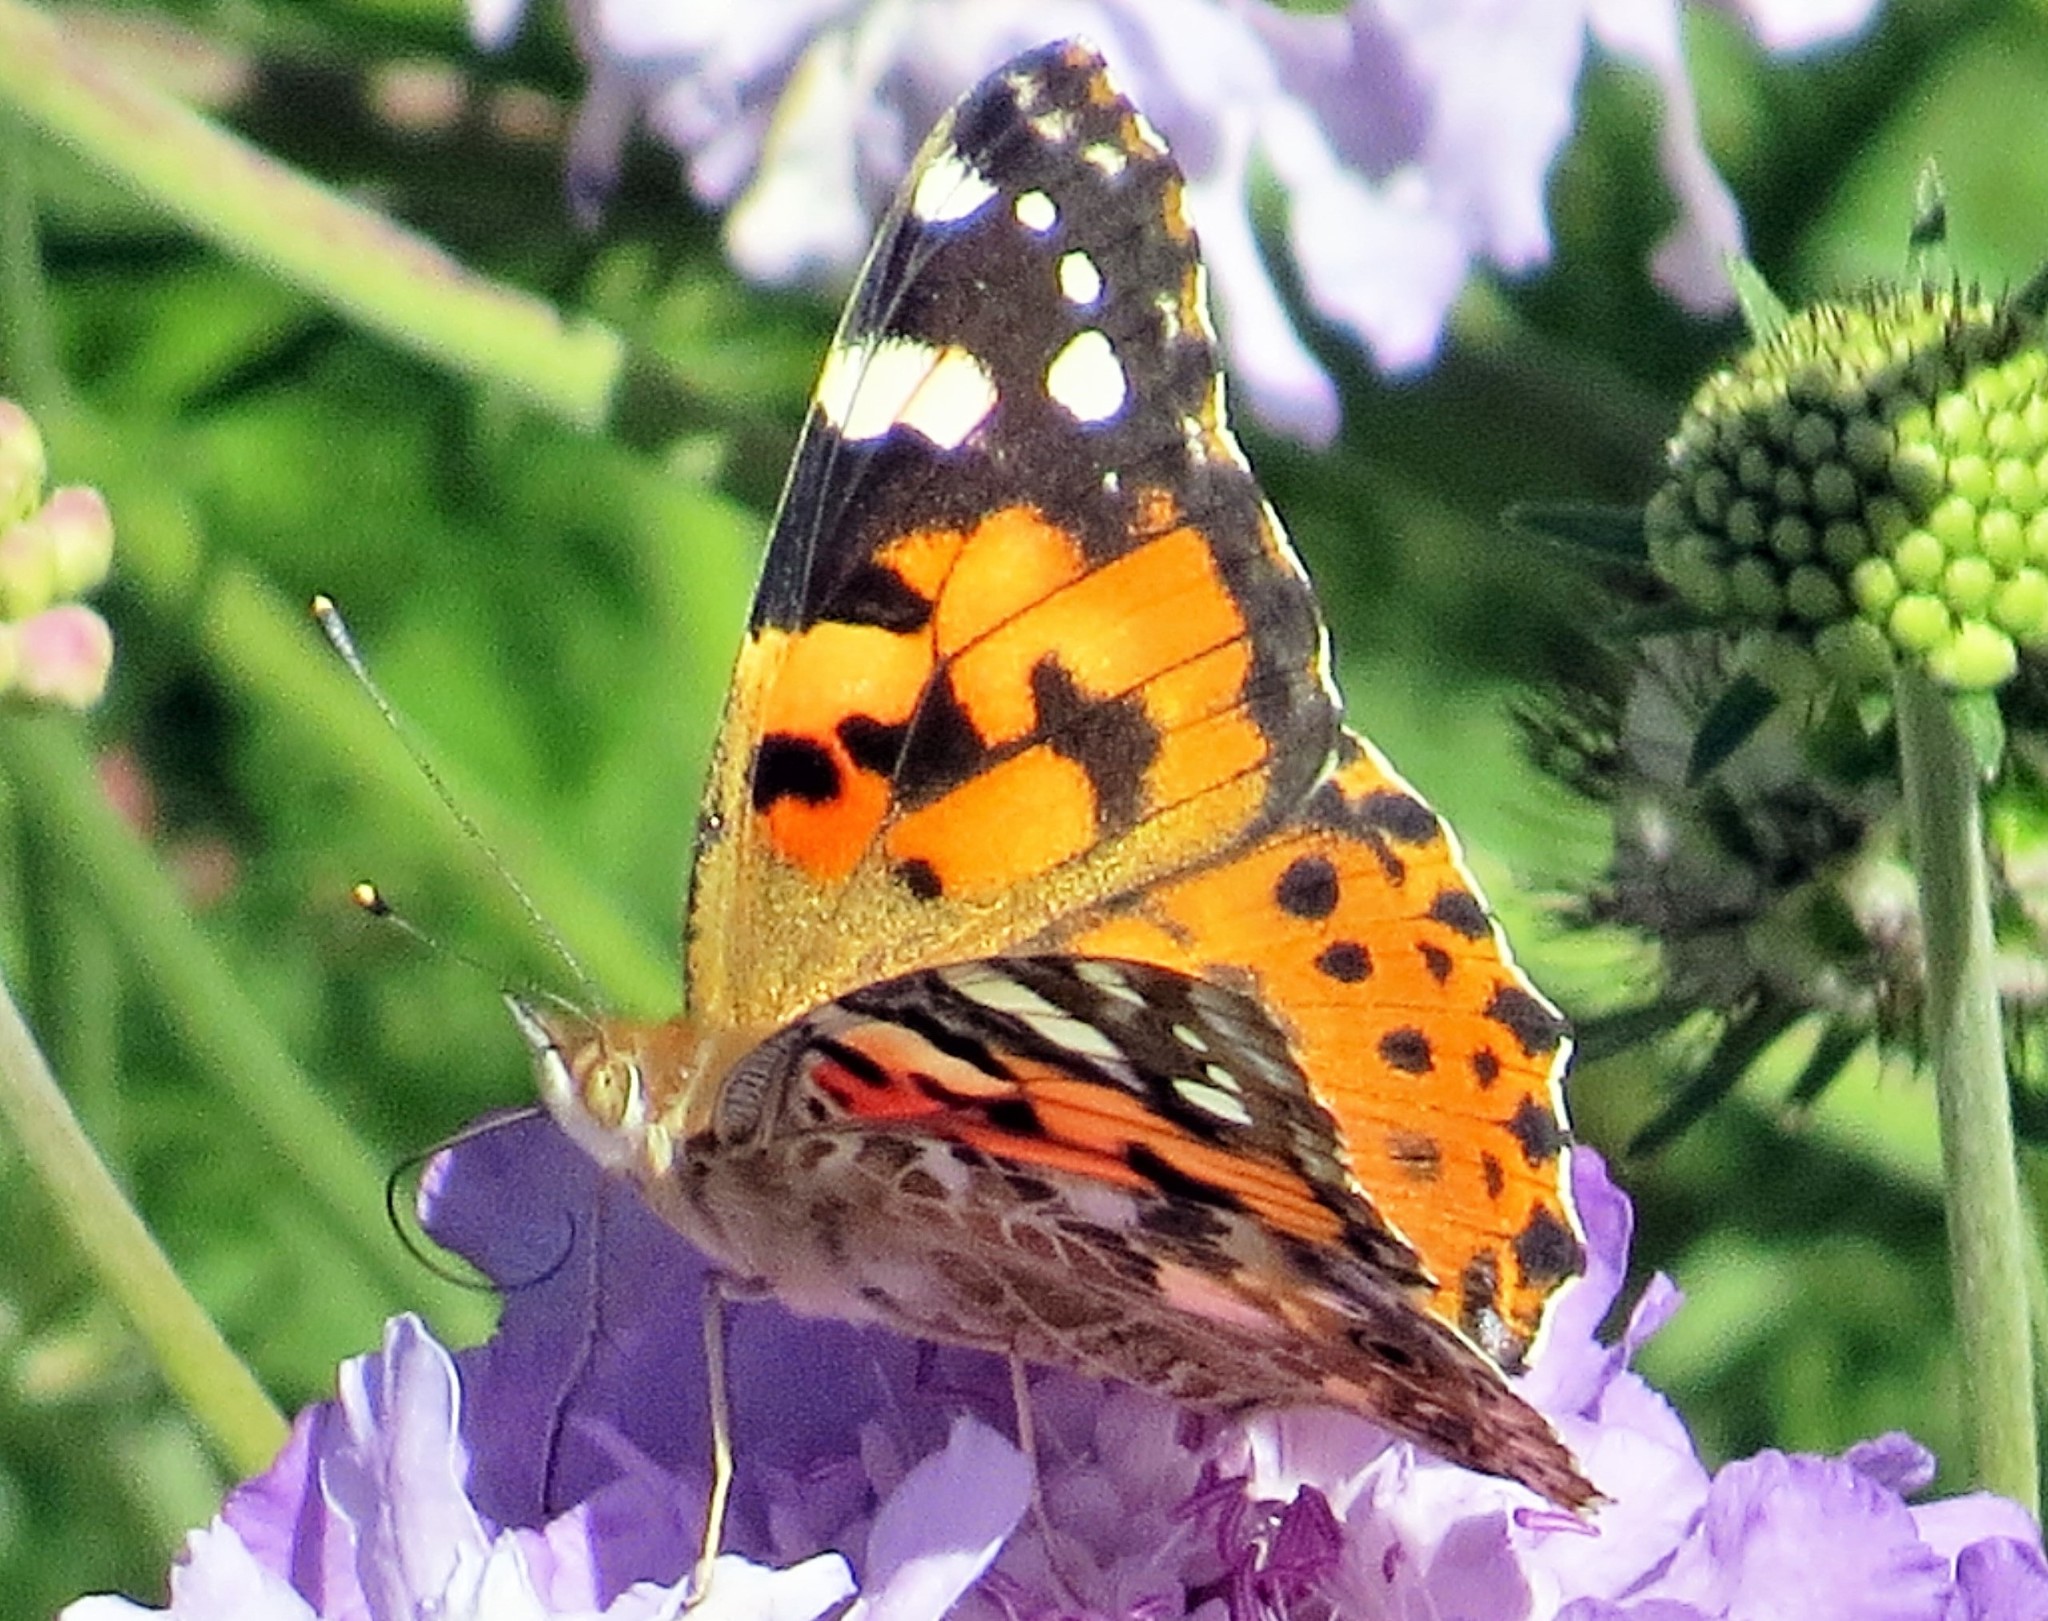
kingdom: Animalia
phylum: Arthropoda
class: Insecta
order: Lepidoptera
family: Nymphalidae
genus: Vanessa
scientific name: Vanessa cardui
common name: Painted lady
